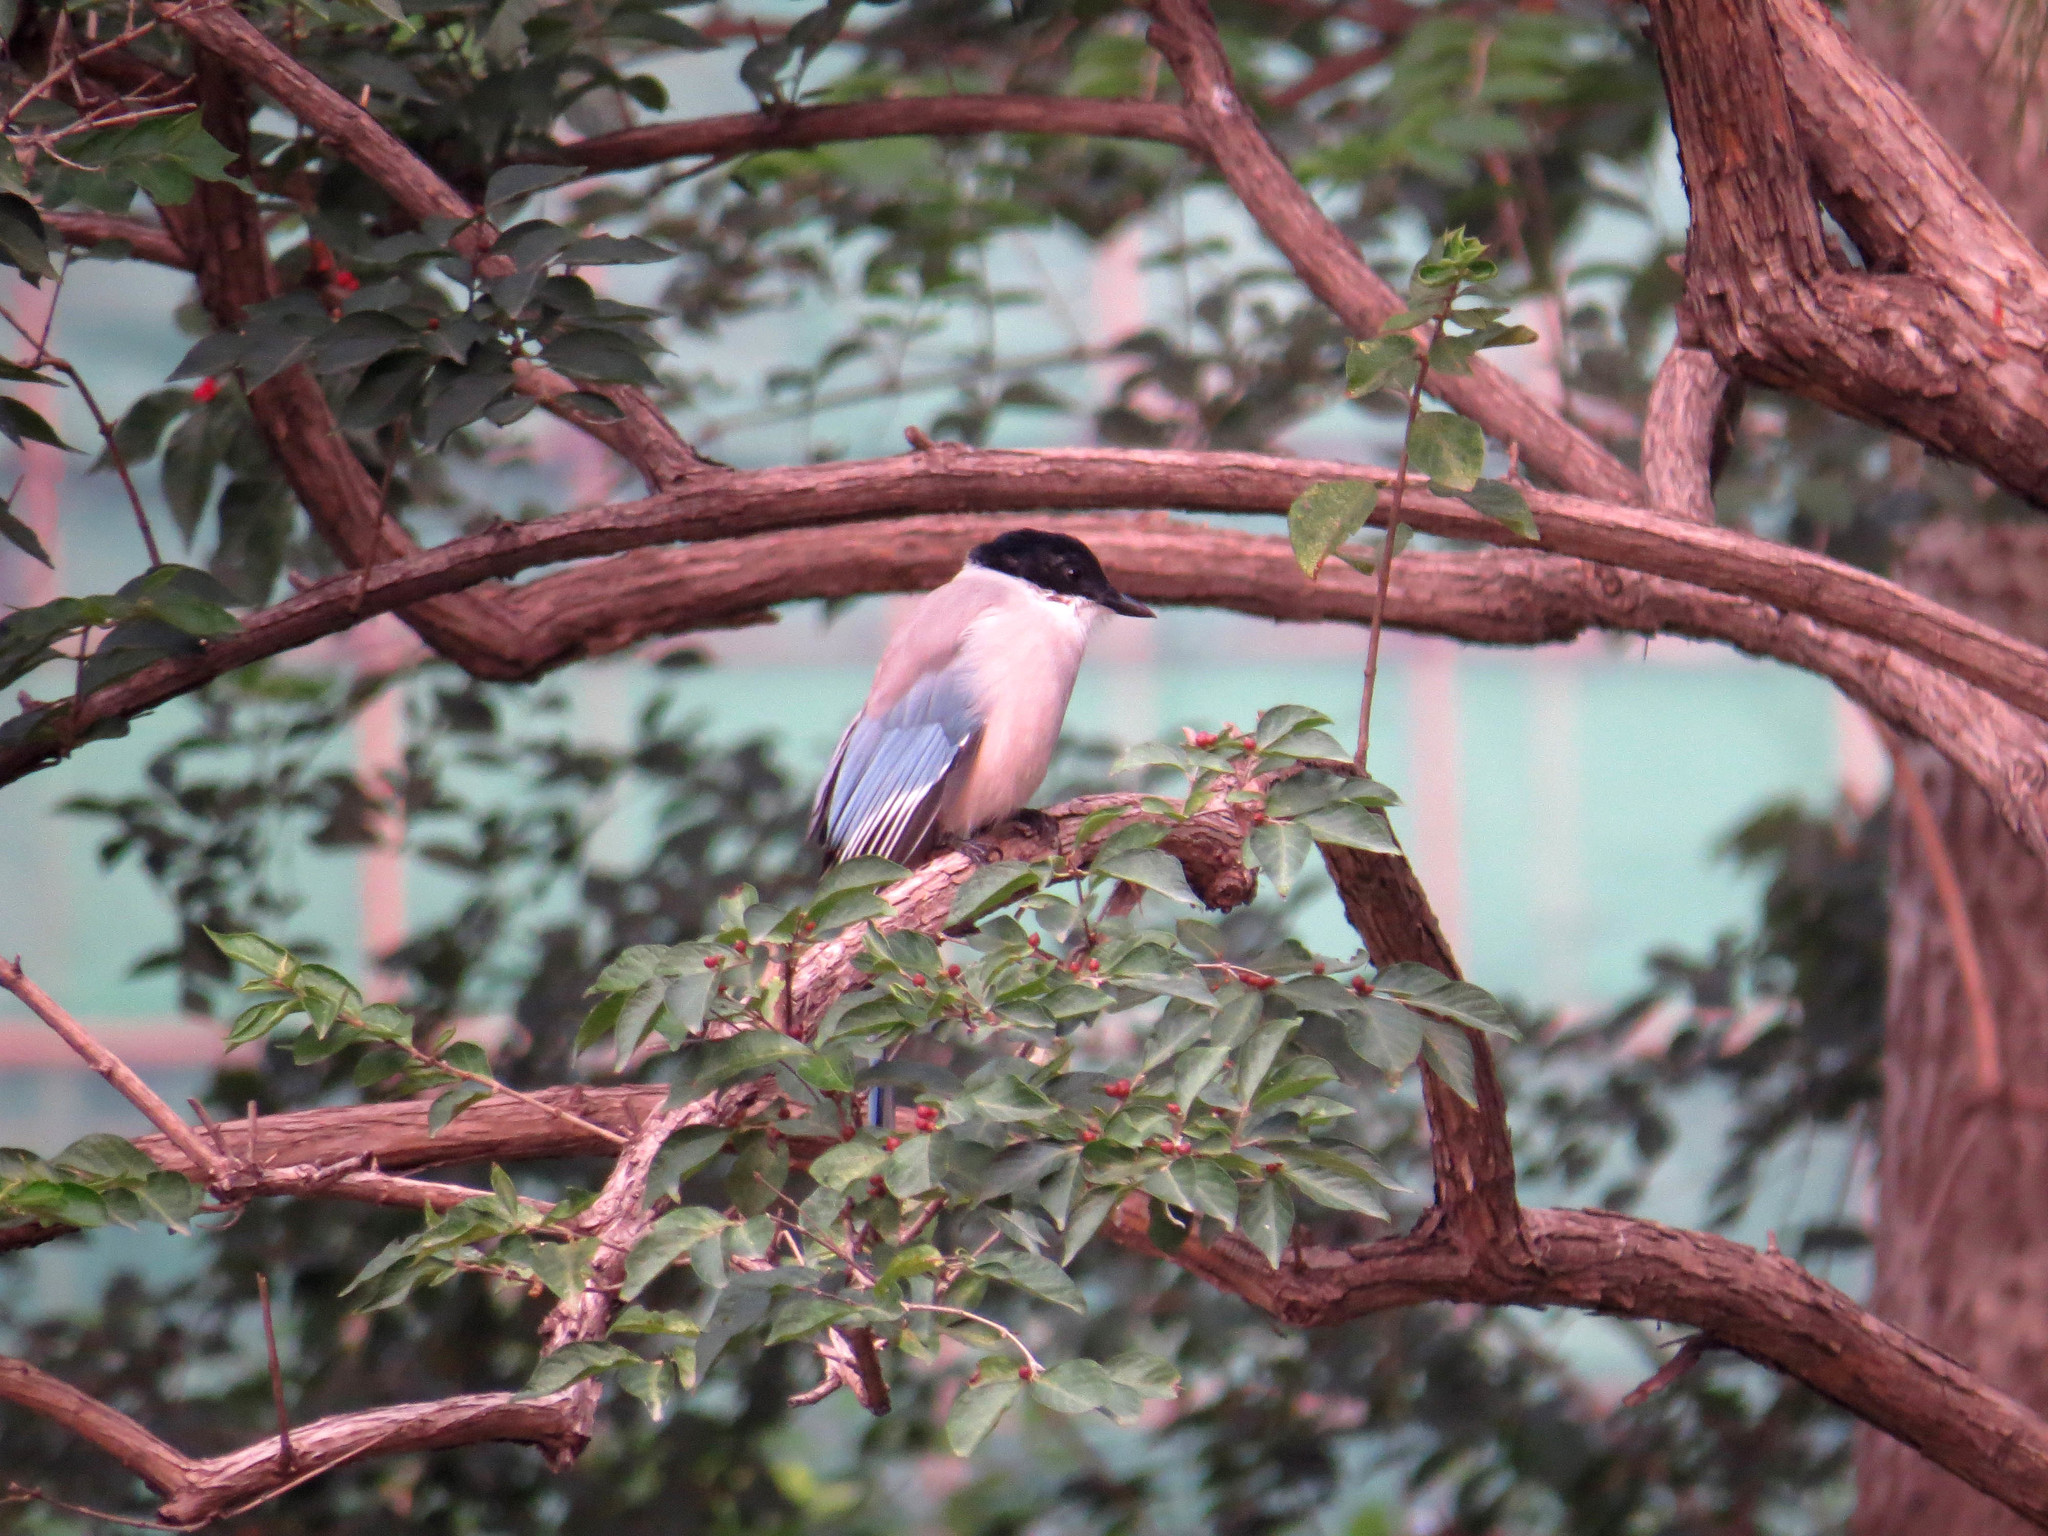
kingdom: Animalia
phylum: Chordata
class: Aves
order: Passeriformes
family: Corvidae
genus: Cyanopica
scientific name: Cyanopica cyanus
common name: Azure-winged magpie
